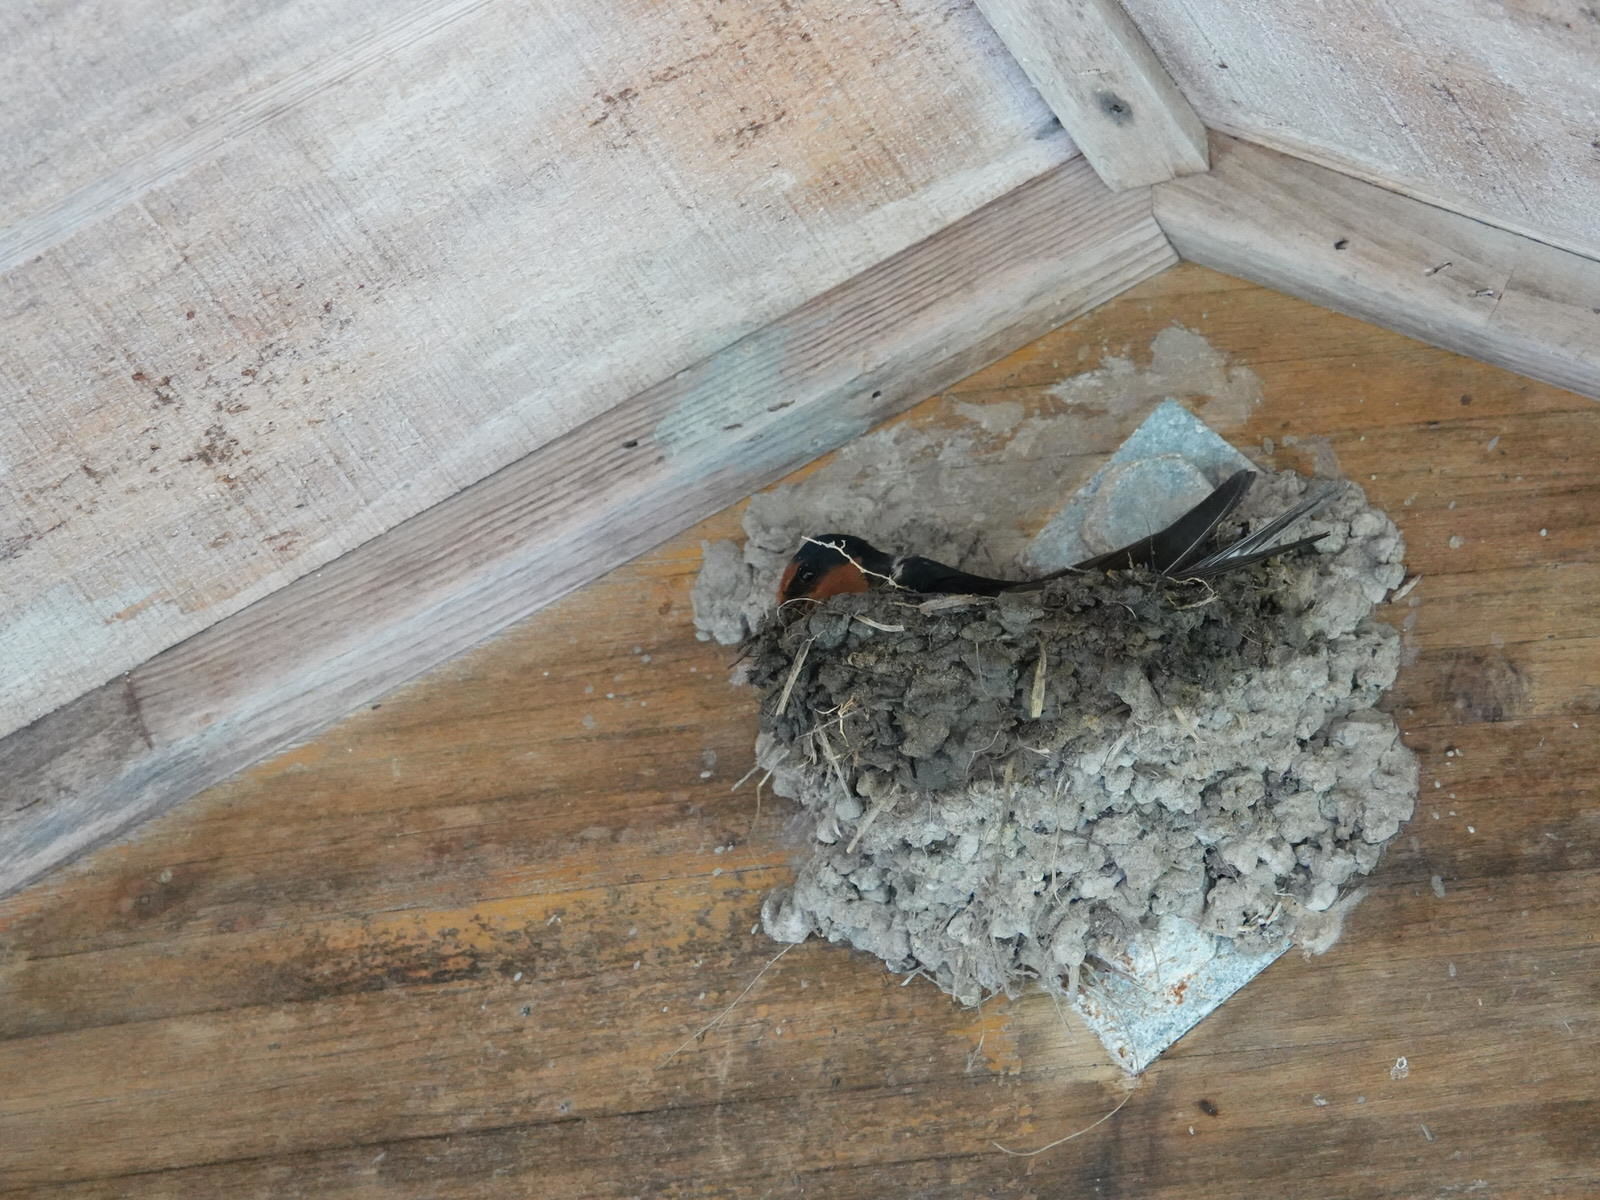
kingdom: Animalia
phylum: Chordata
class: Aves
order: Passeriformes
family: Hirundinidae
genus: Hirundo
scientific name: Hirundo neoxena
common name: Welcome swallow
